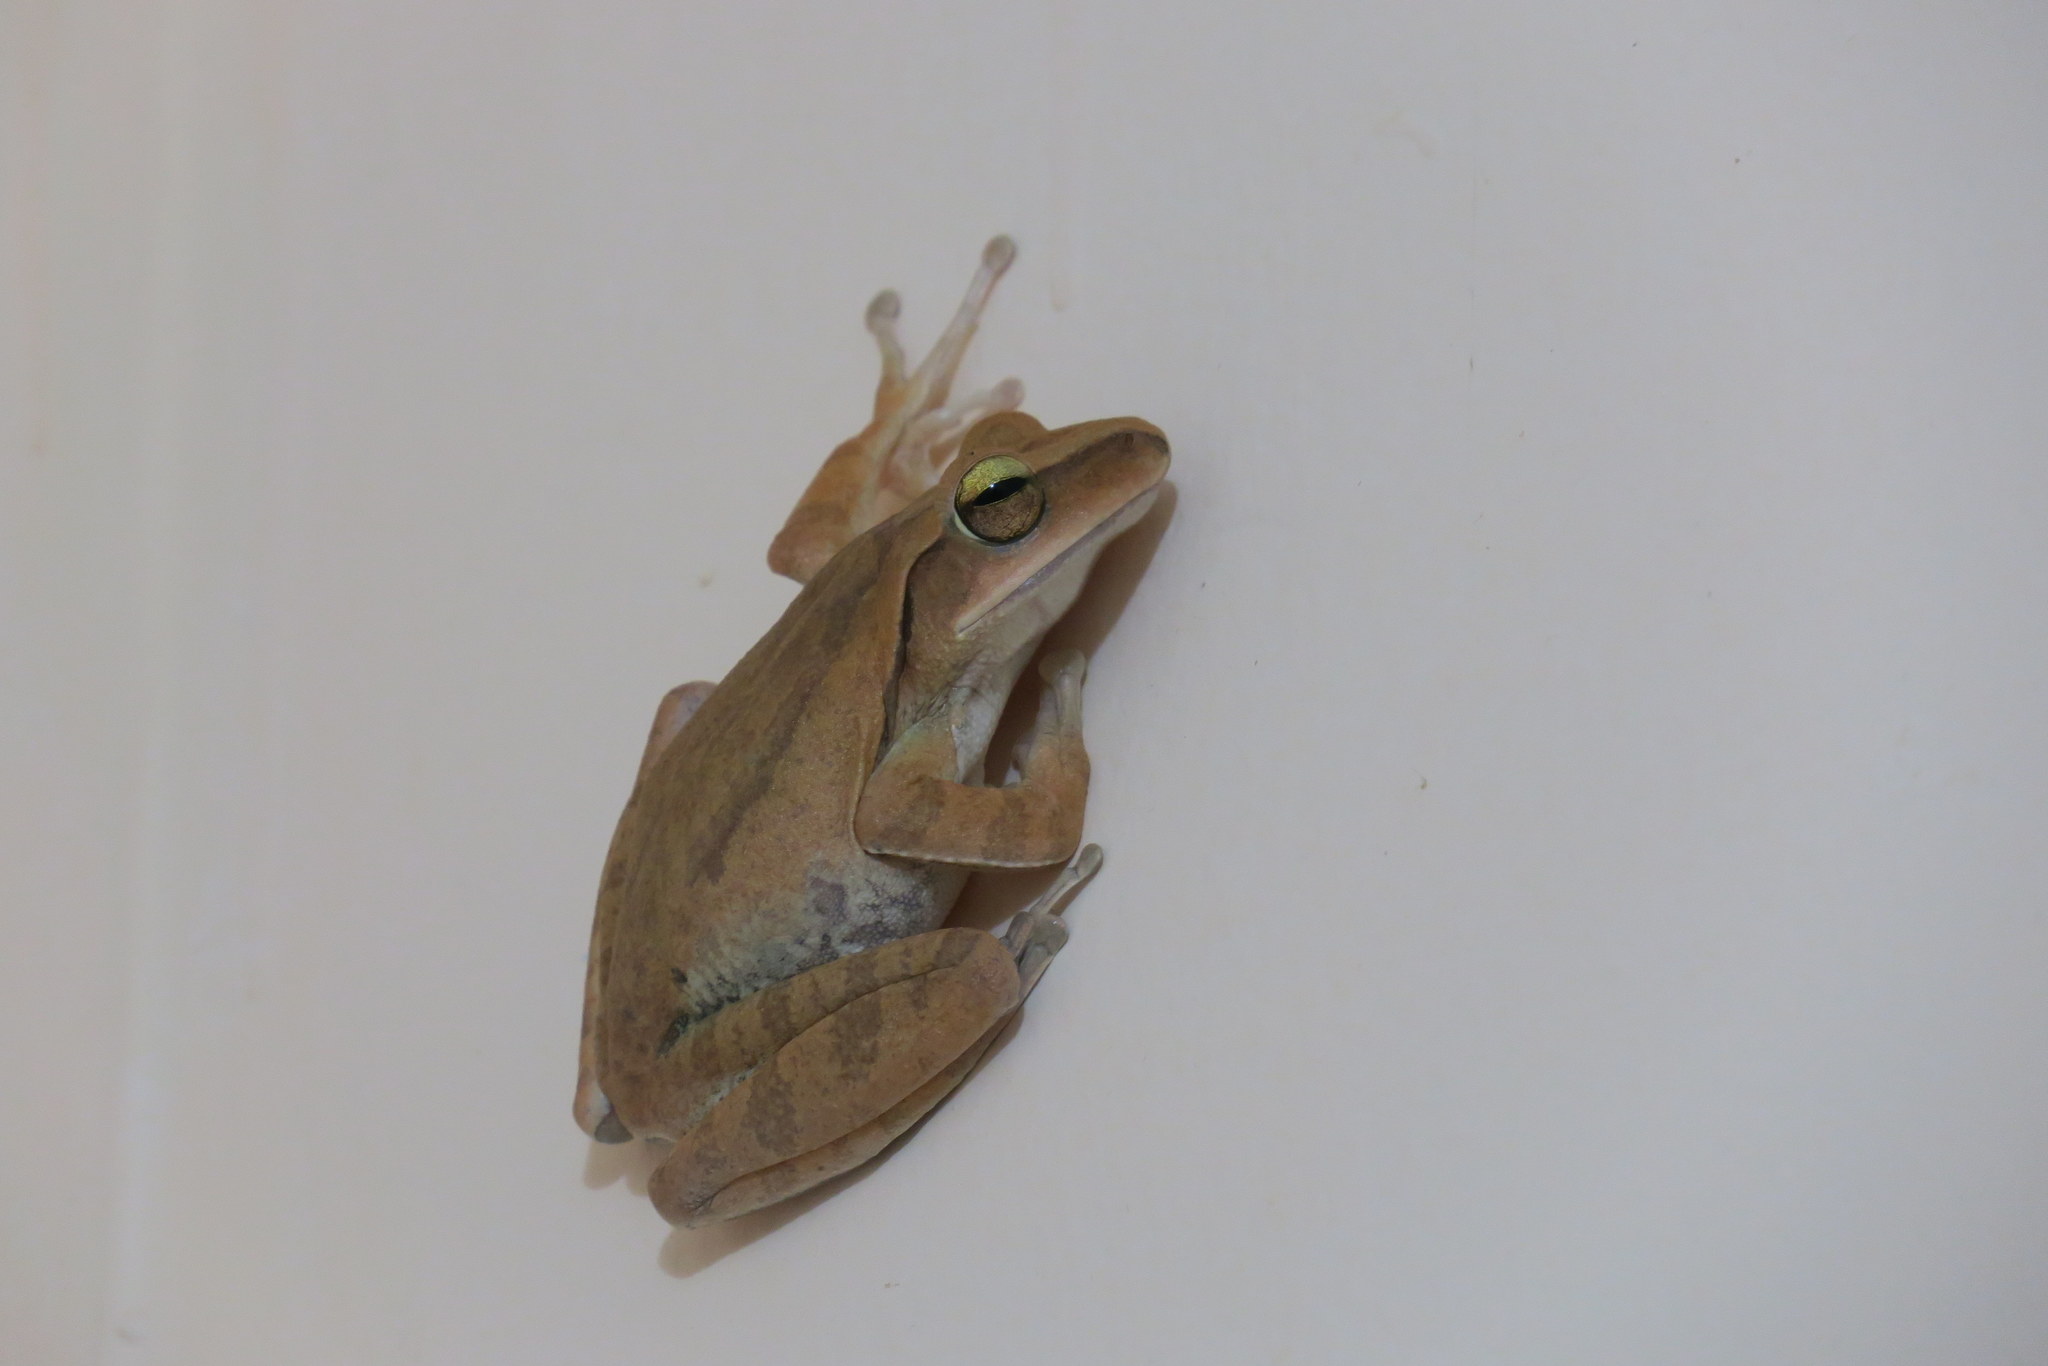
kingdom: Animalia
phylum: Chordata
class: Amphibia
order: Anura
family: Rhacophoridae
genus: Polypedates
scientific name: Polypedates megacephalus
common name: Hong kong whipping frog
